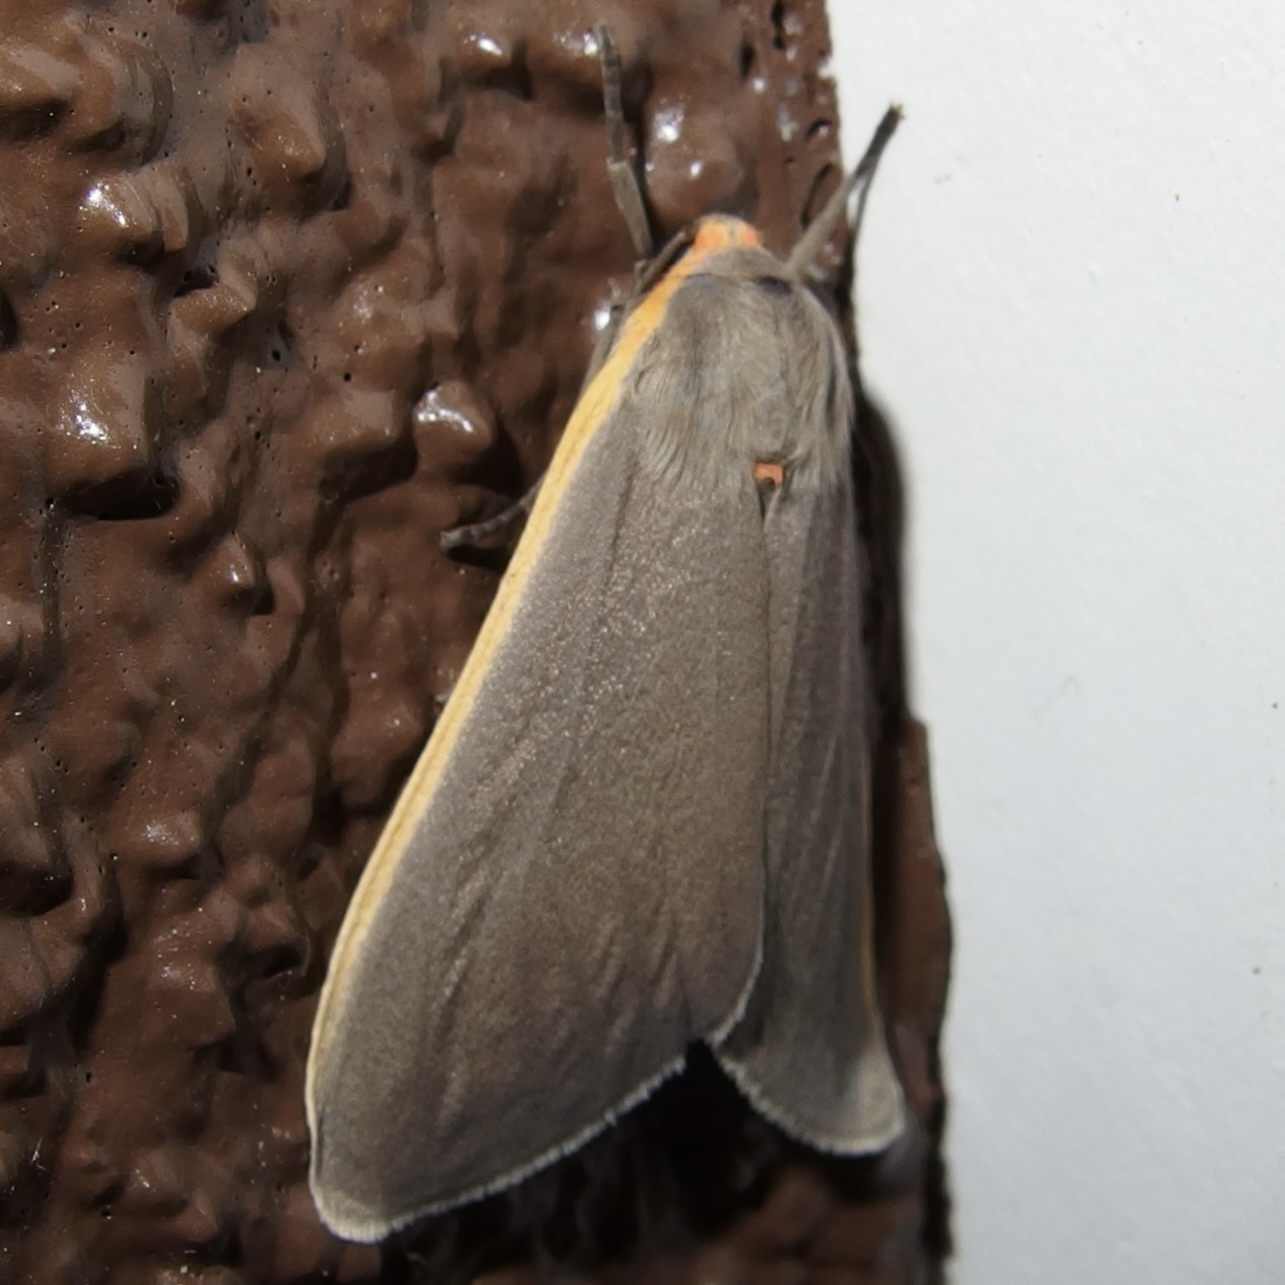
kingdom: Animalia
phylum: Arthropoda
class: Insecta
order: Lepidoptera
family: Erebidae
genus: Euchaetes
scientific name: Euchaetes antica
